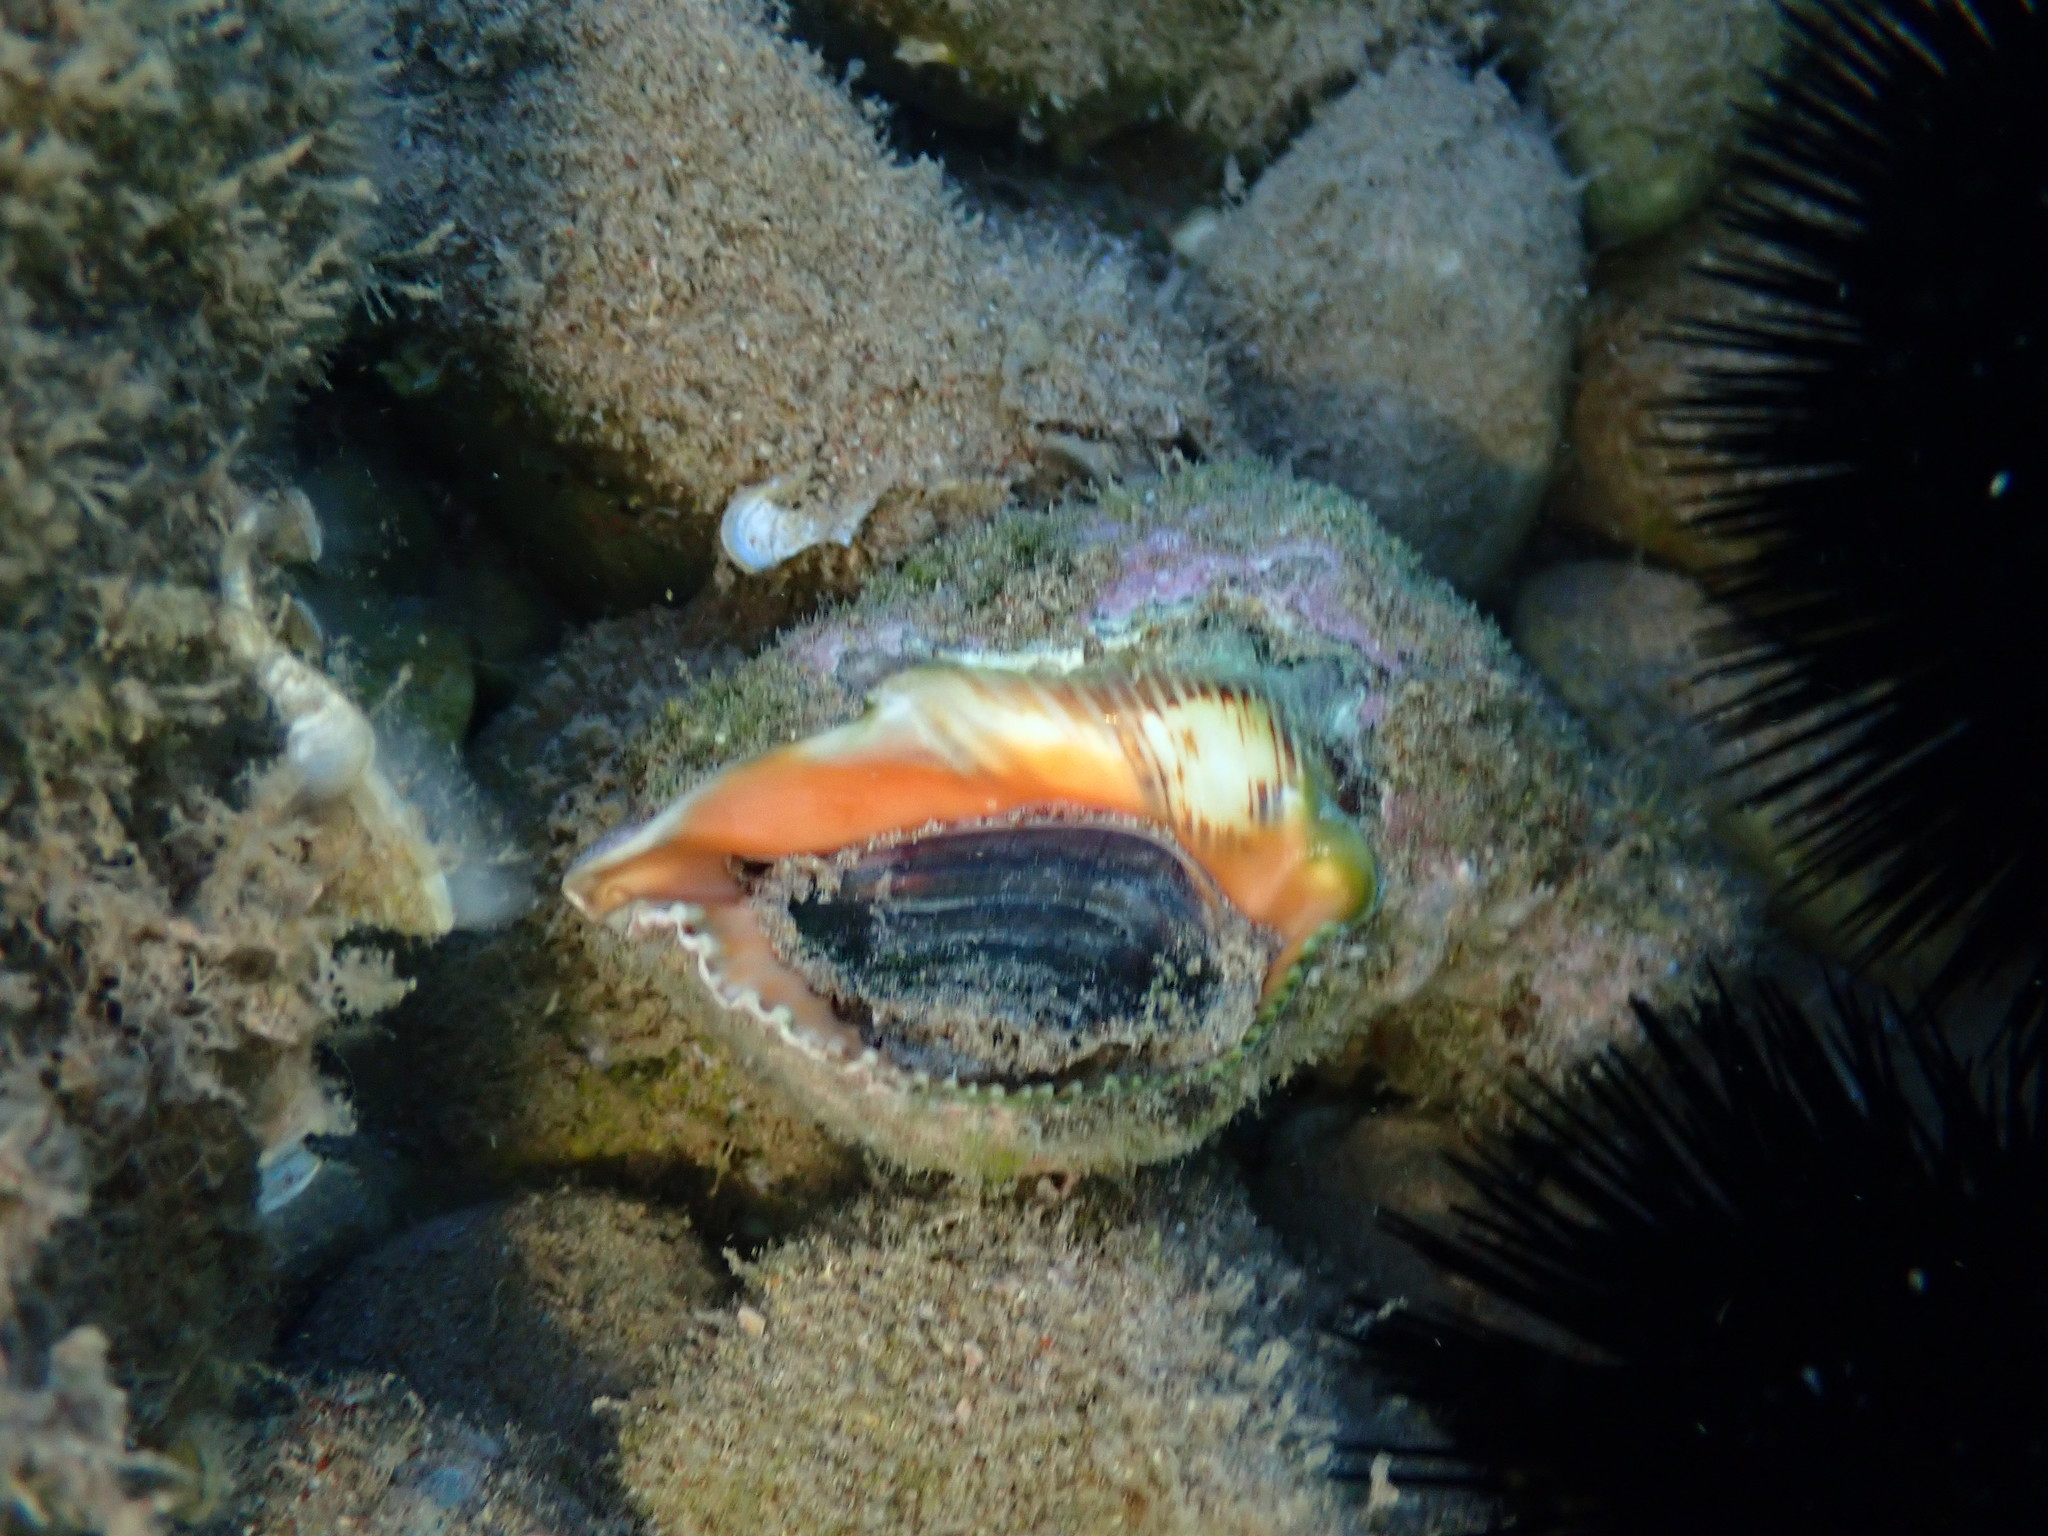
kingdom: Animalia
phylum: Mollusca
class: Gastropoda
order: Neogastropoda
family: Muricidae
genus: Stramonita
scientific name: Stramonita haemastoma
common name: Florida dog winkle
